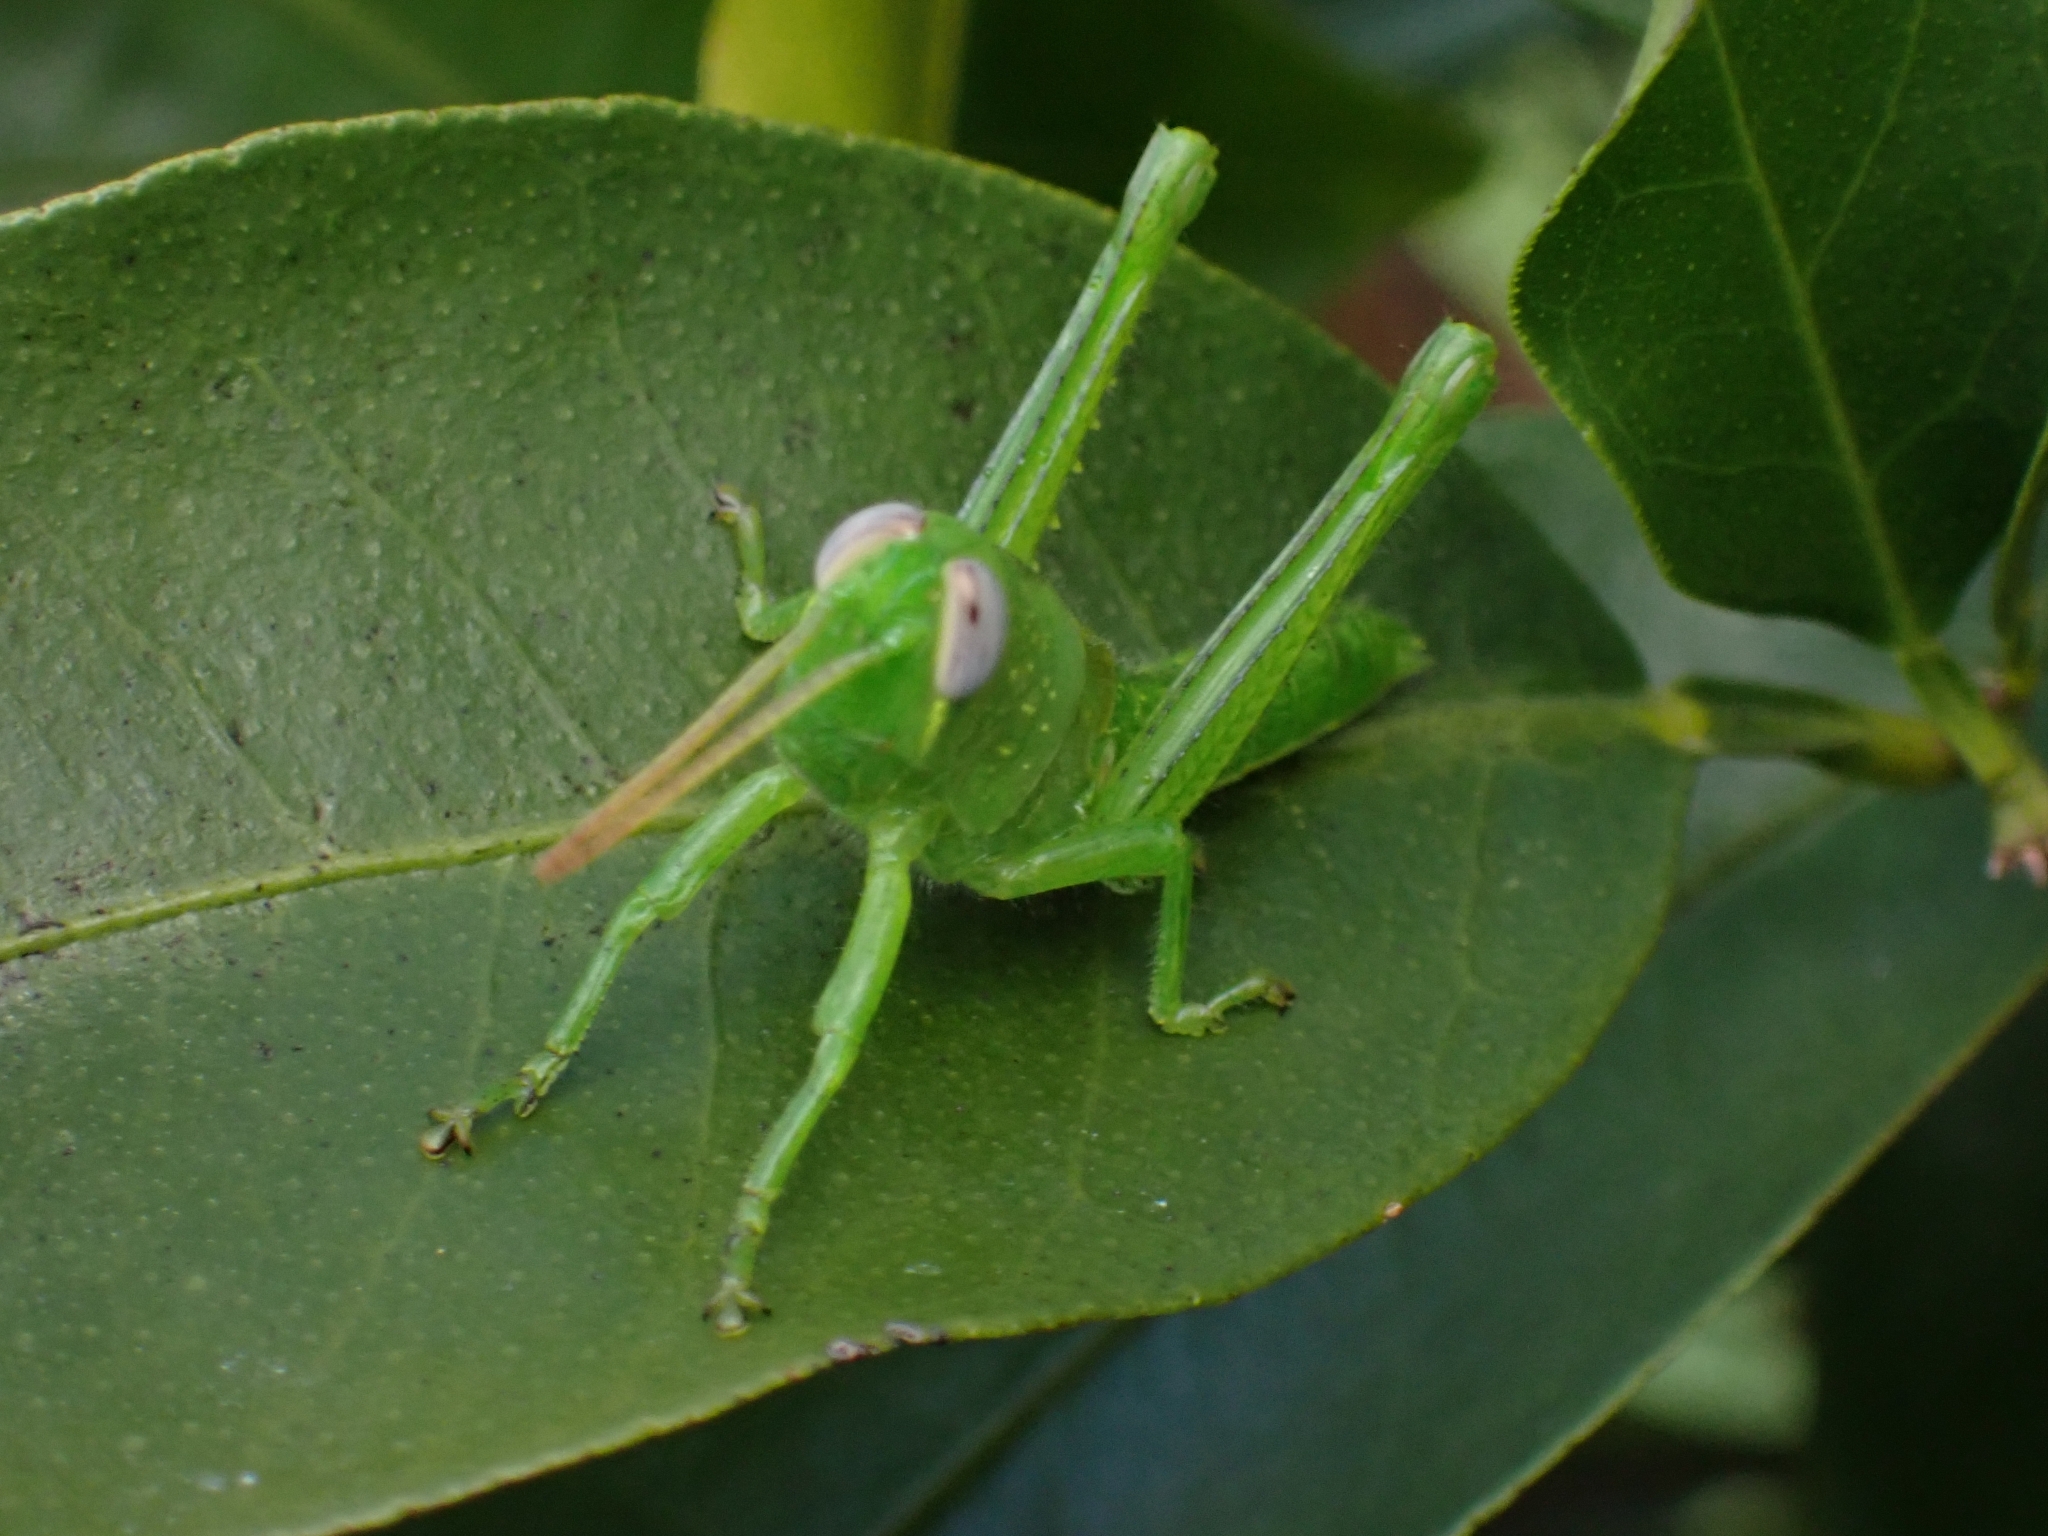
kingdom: Animalia
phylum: Arthropoda
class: Insecta
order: Orthoptera
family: Acrididae
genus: Valanga
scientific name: Valanga irregularis
